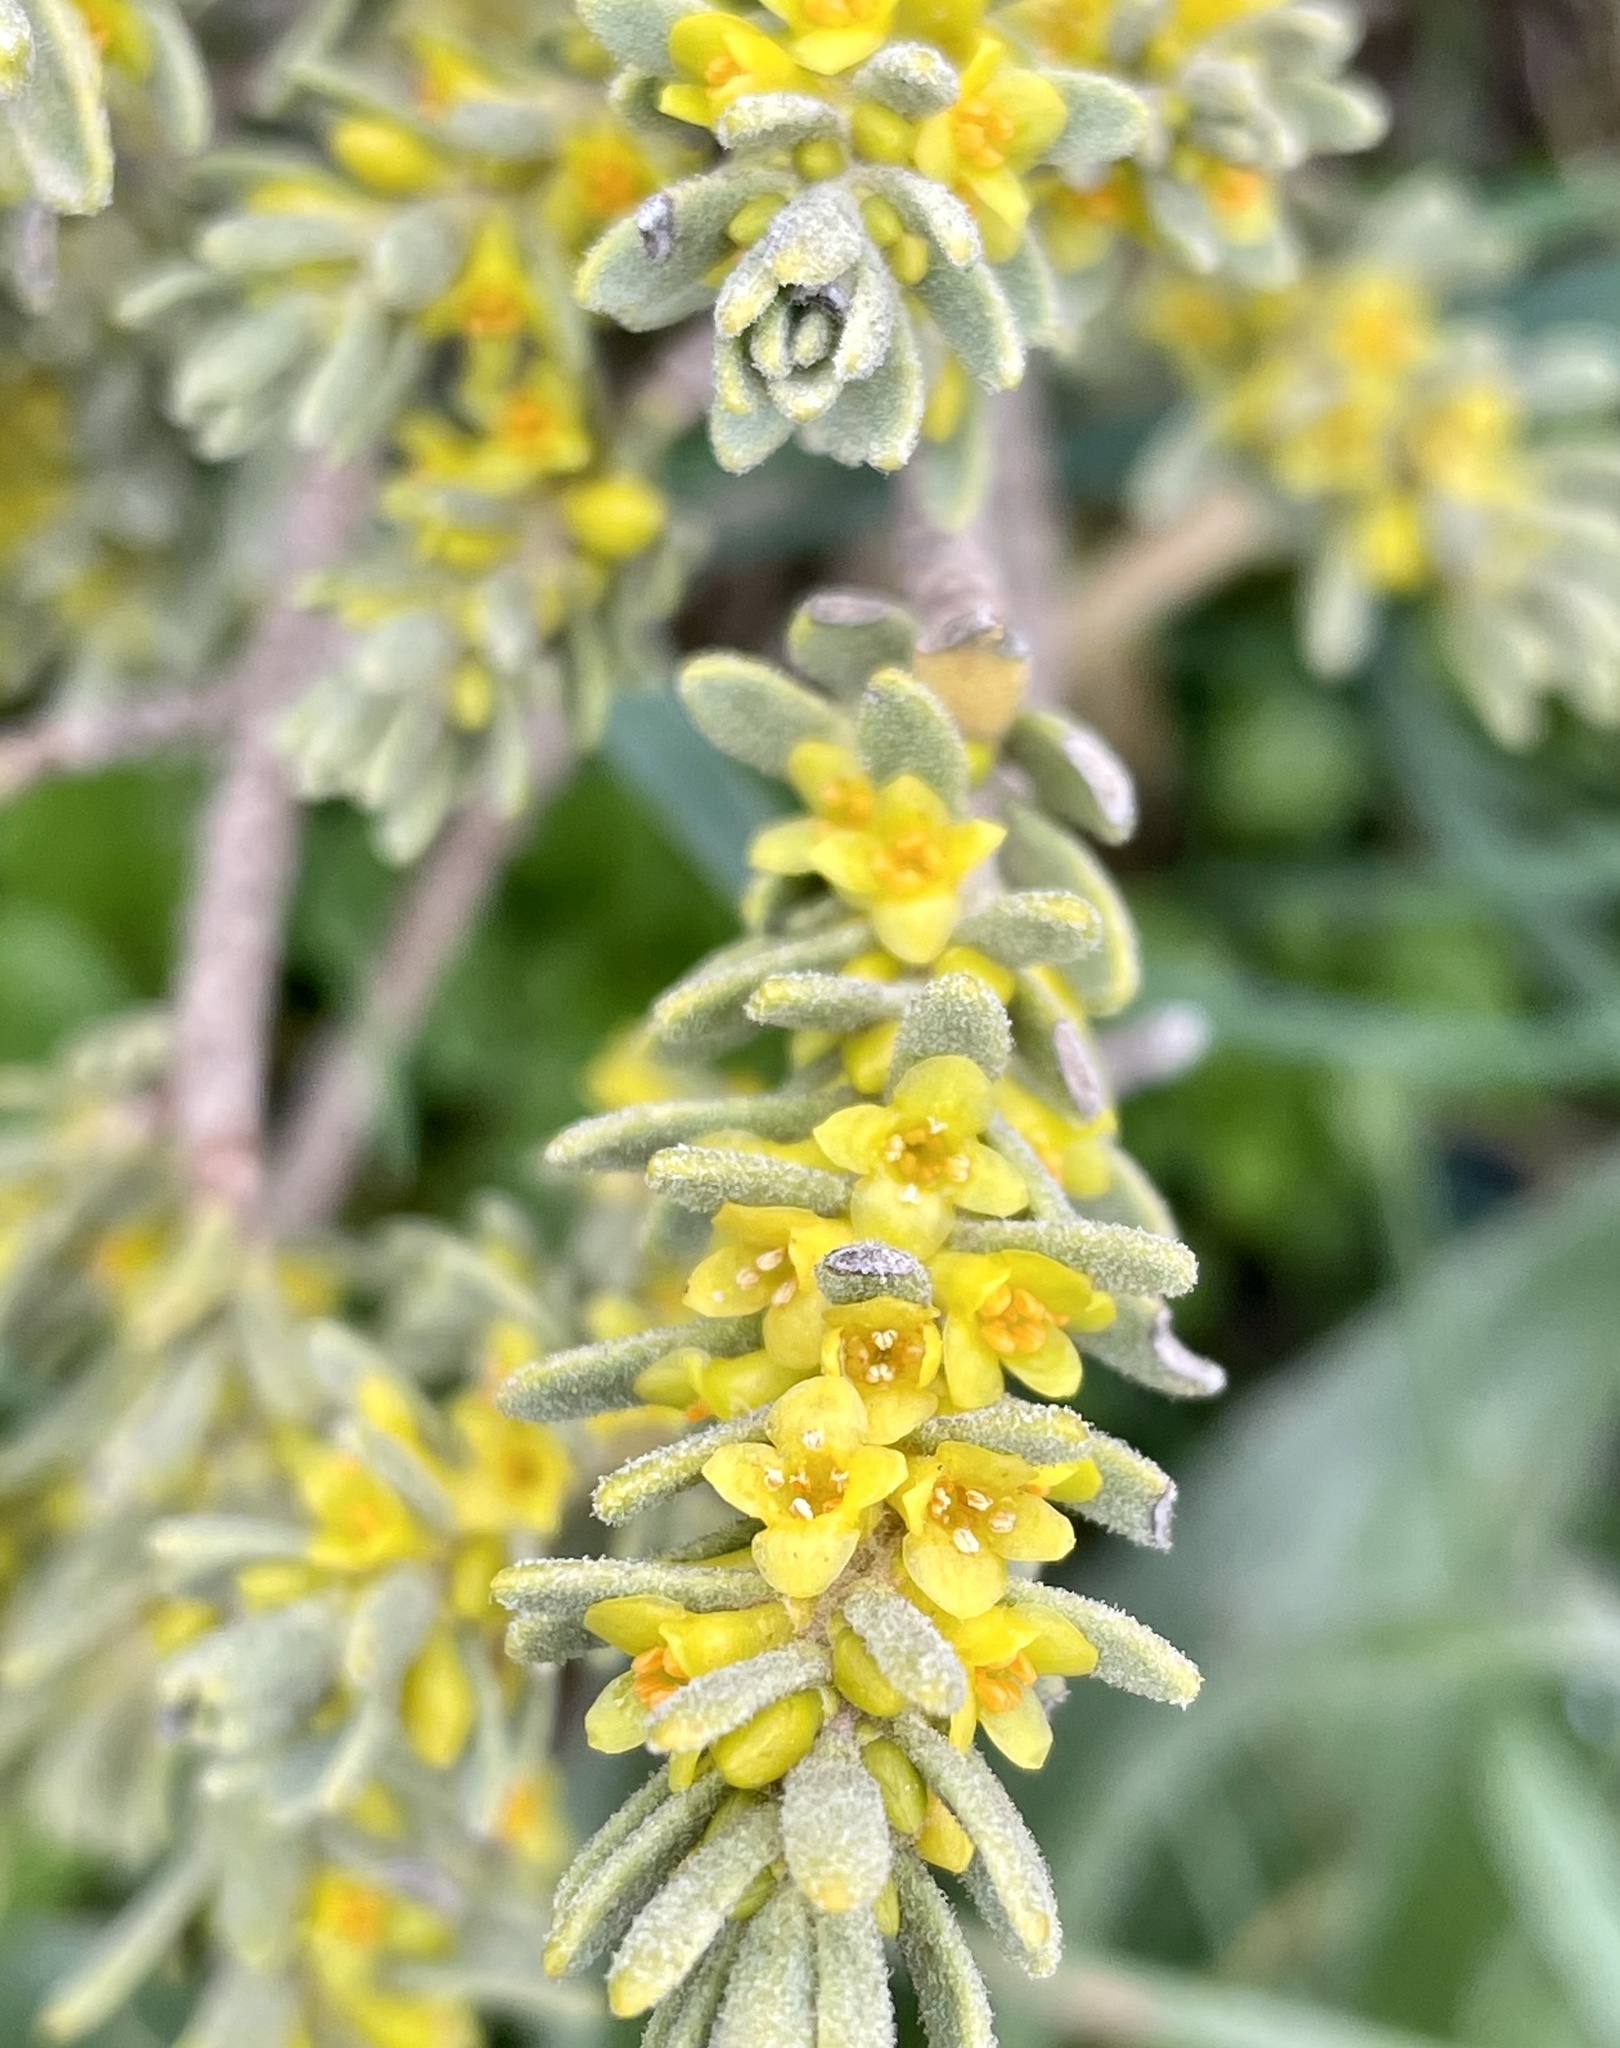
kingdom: Plantae
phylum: Tracheophyta
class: Magnoliopsida
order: Malvales
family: Thymelaeaceae
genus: Thymelaea
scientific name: Thymelaea tinctoria
